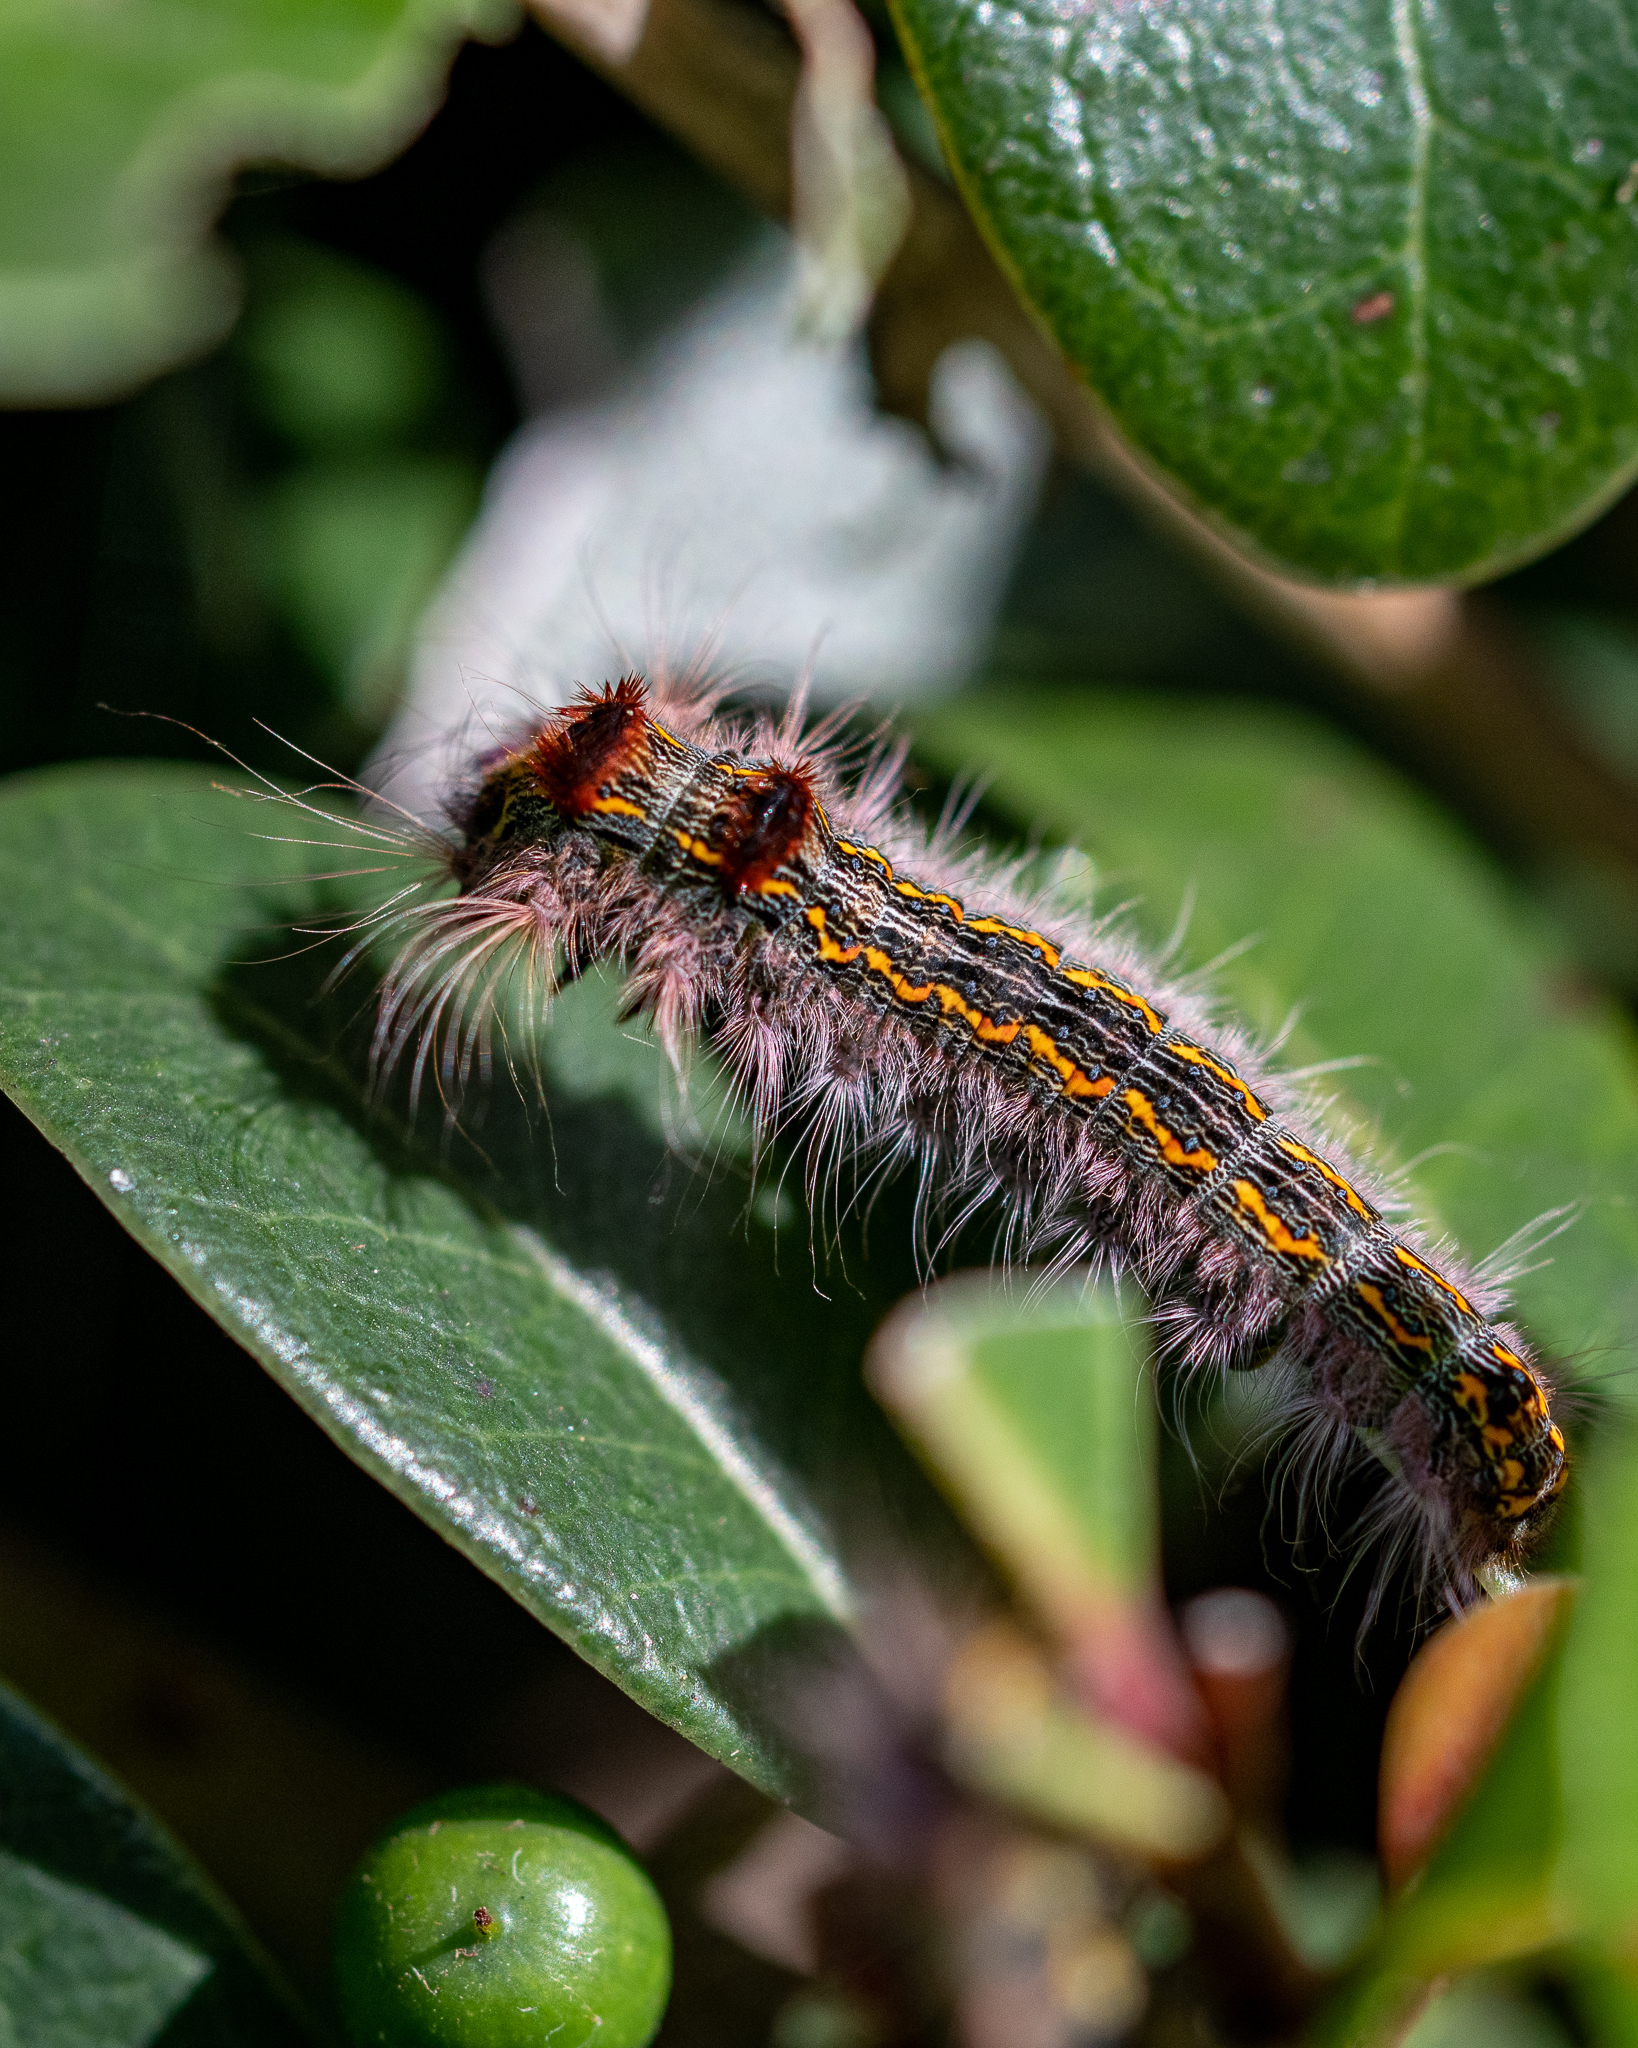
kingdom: Animalia
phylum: Arthropoda
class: Insecta
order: Lepidoptera
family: Lasiocampidae
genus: Eutricha
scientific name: Eutricha capensis
